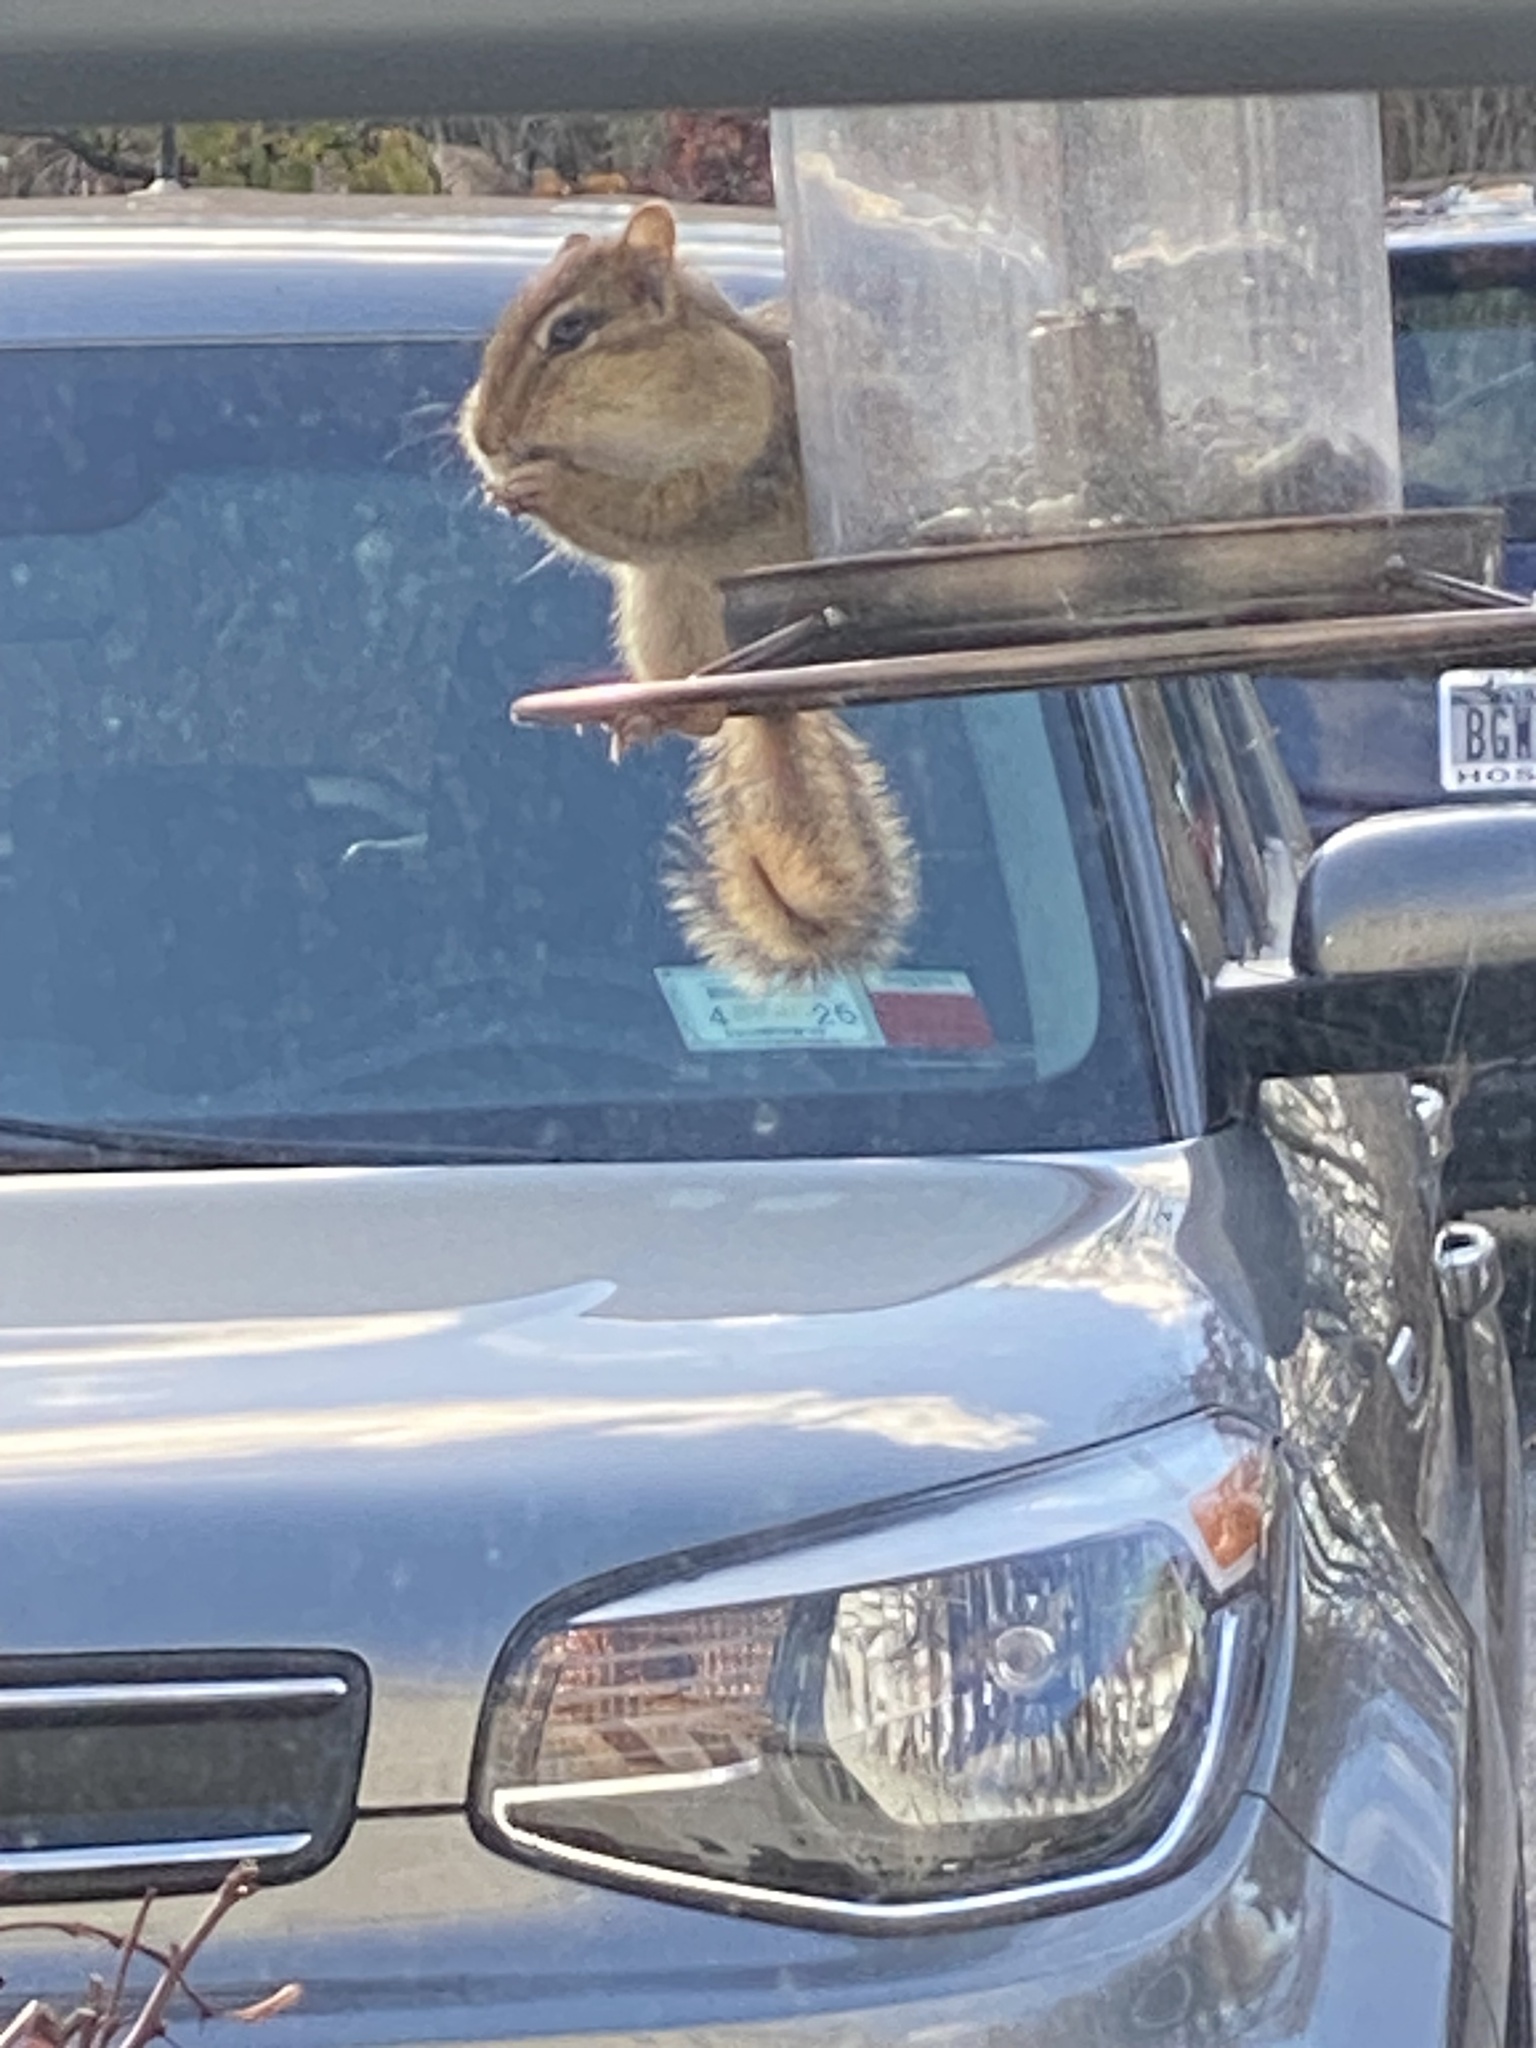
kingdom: Animalia
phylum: Chordata
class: Mammalia
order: Rodentia
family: Sciuridae
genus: Tamias
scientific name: Tamias striatus
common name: Eastern chipmunk
